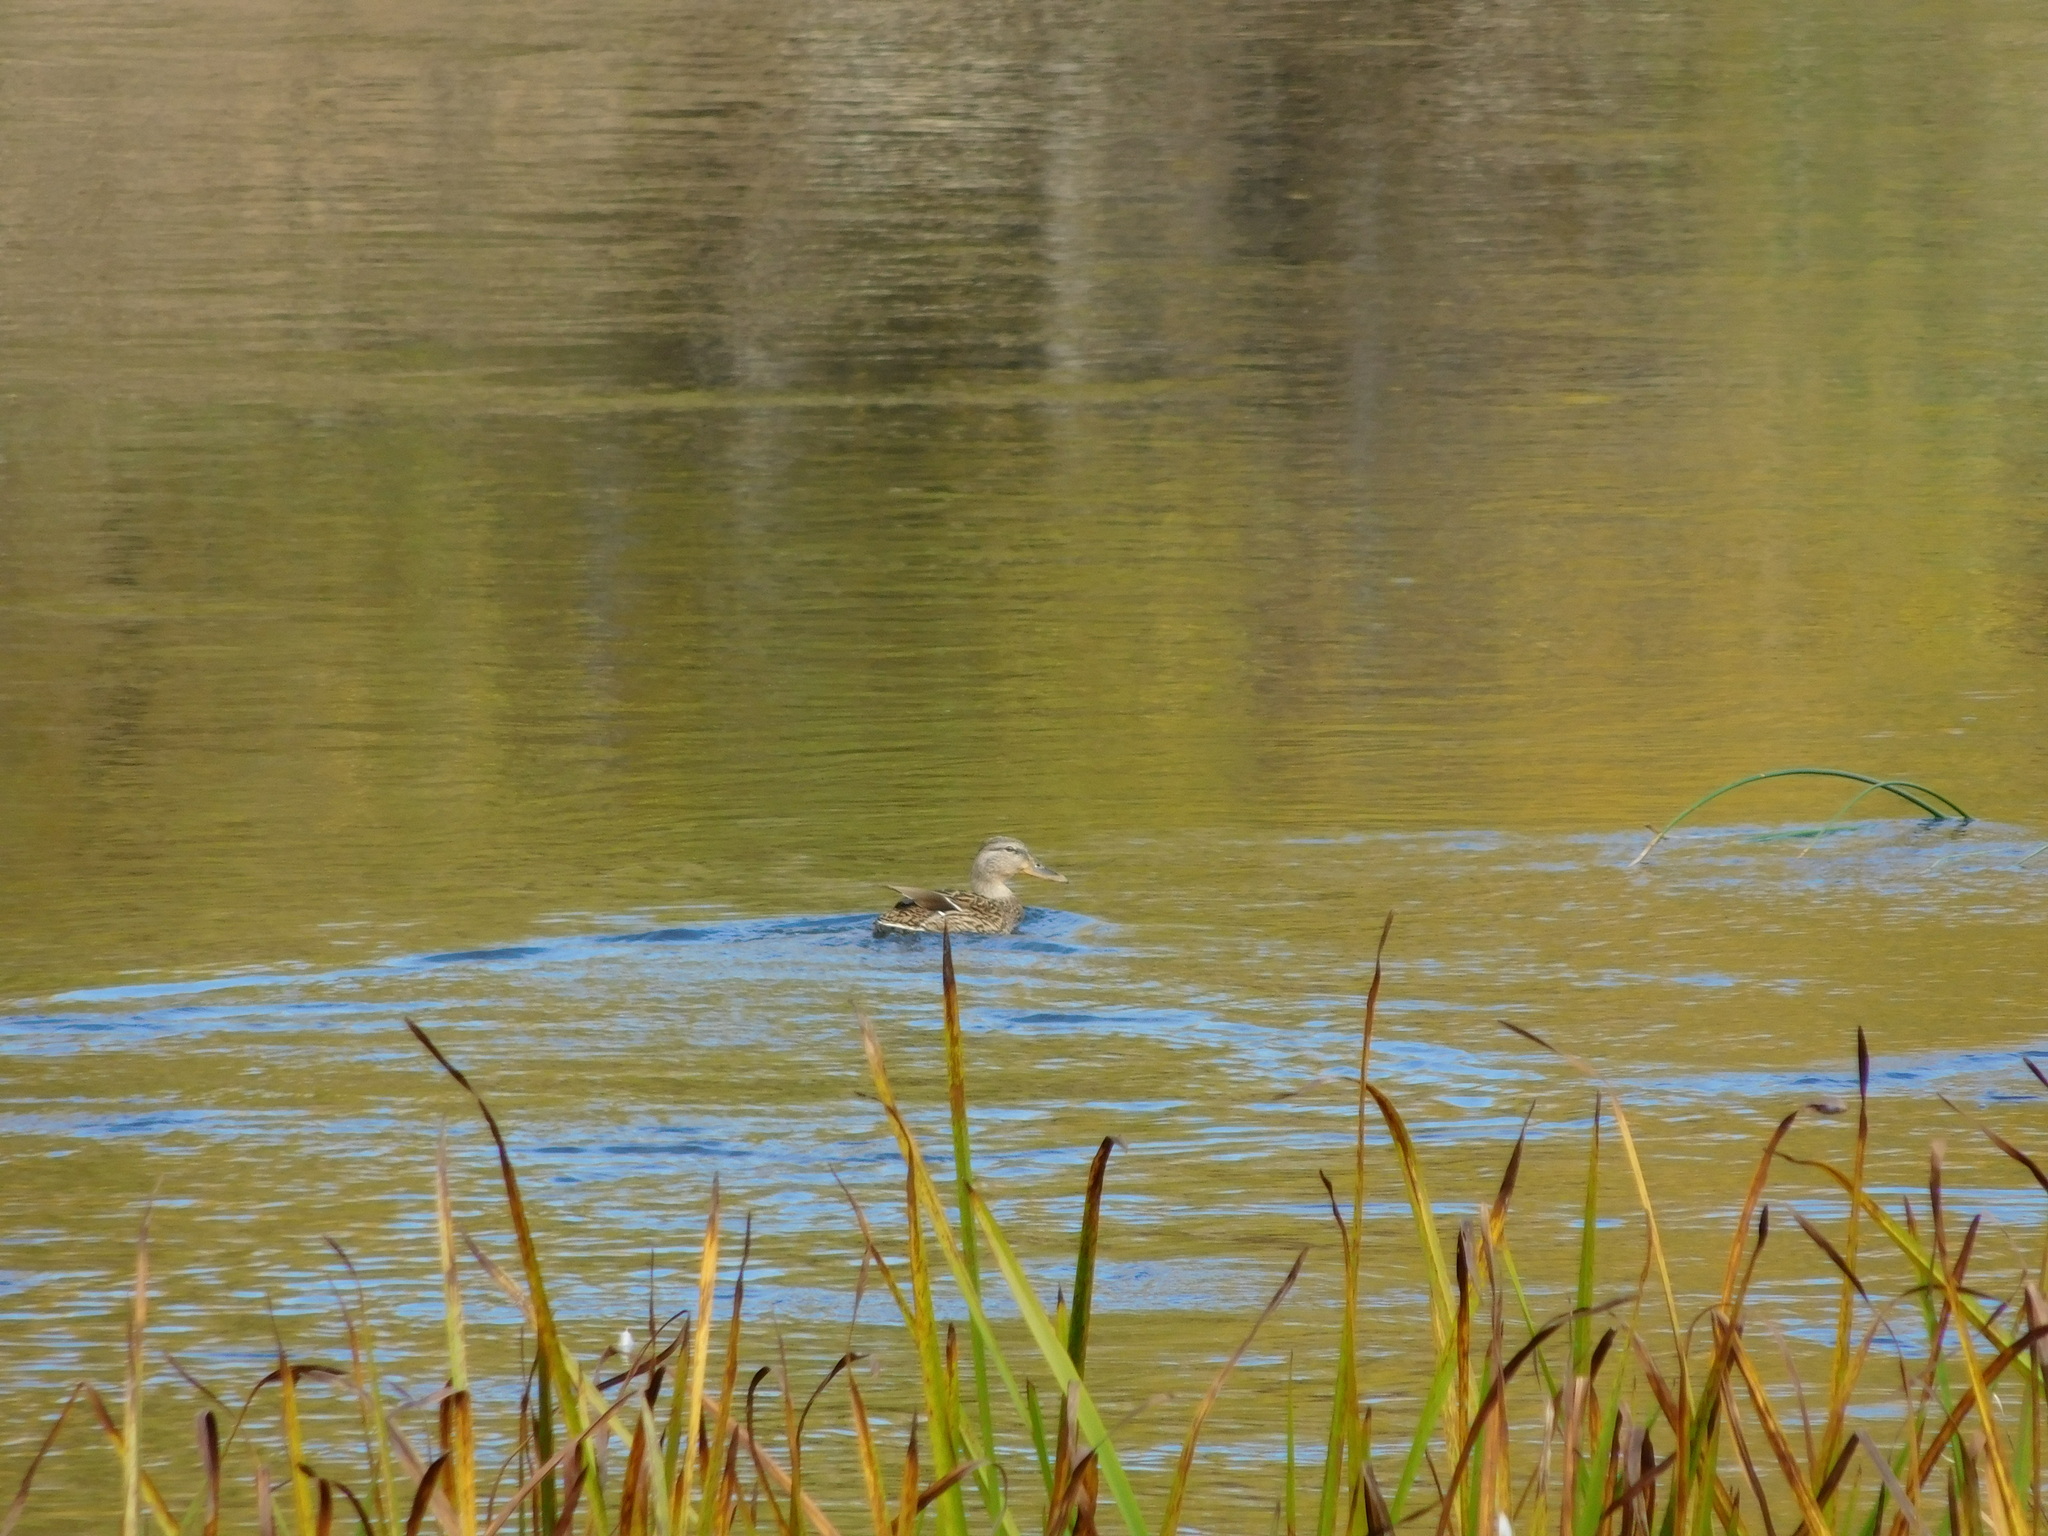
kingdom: Animalia
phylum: Chordata
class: Aves
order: Anseriformes
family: Anatidae
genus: Anas
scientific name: Anas platyrhynchos
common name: Mallard
